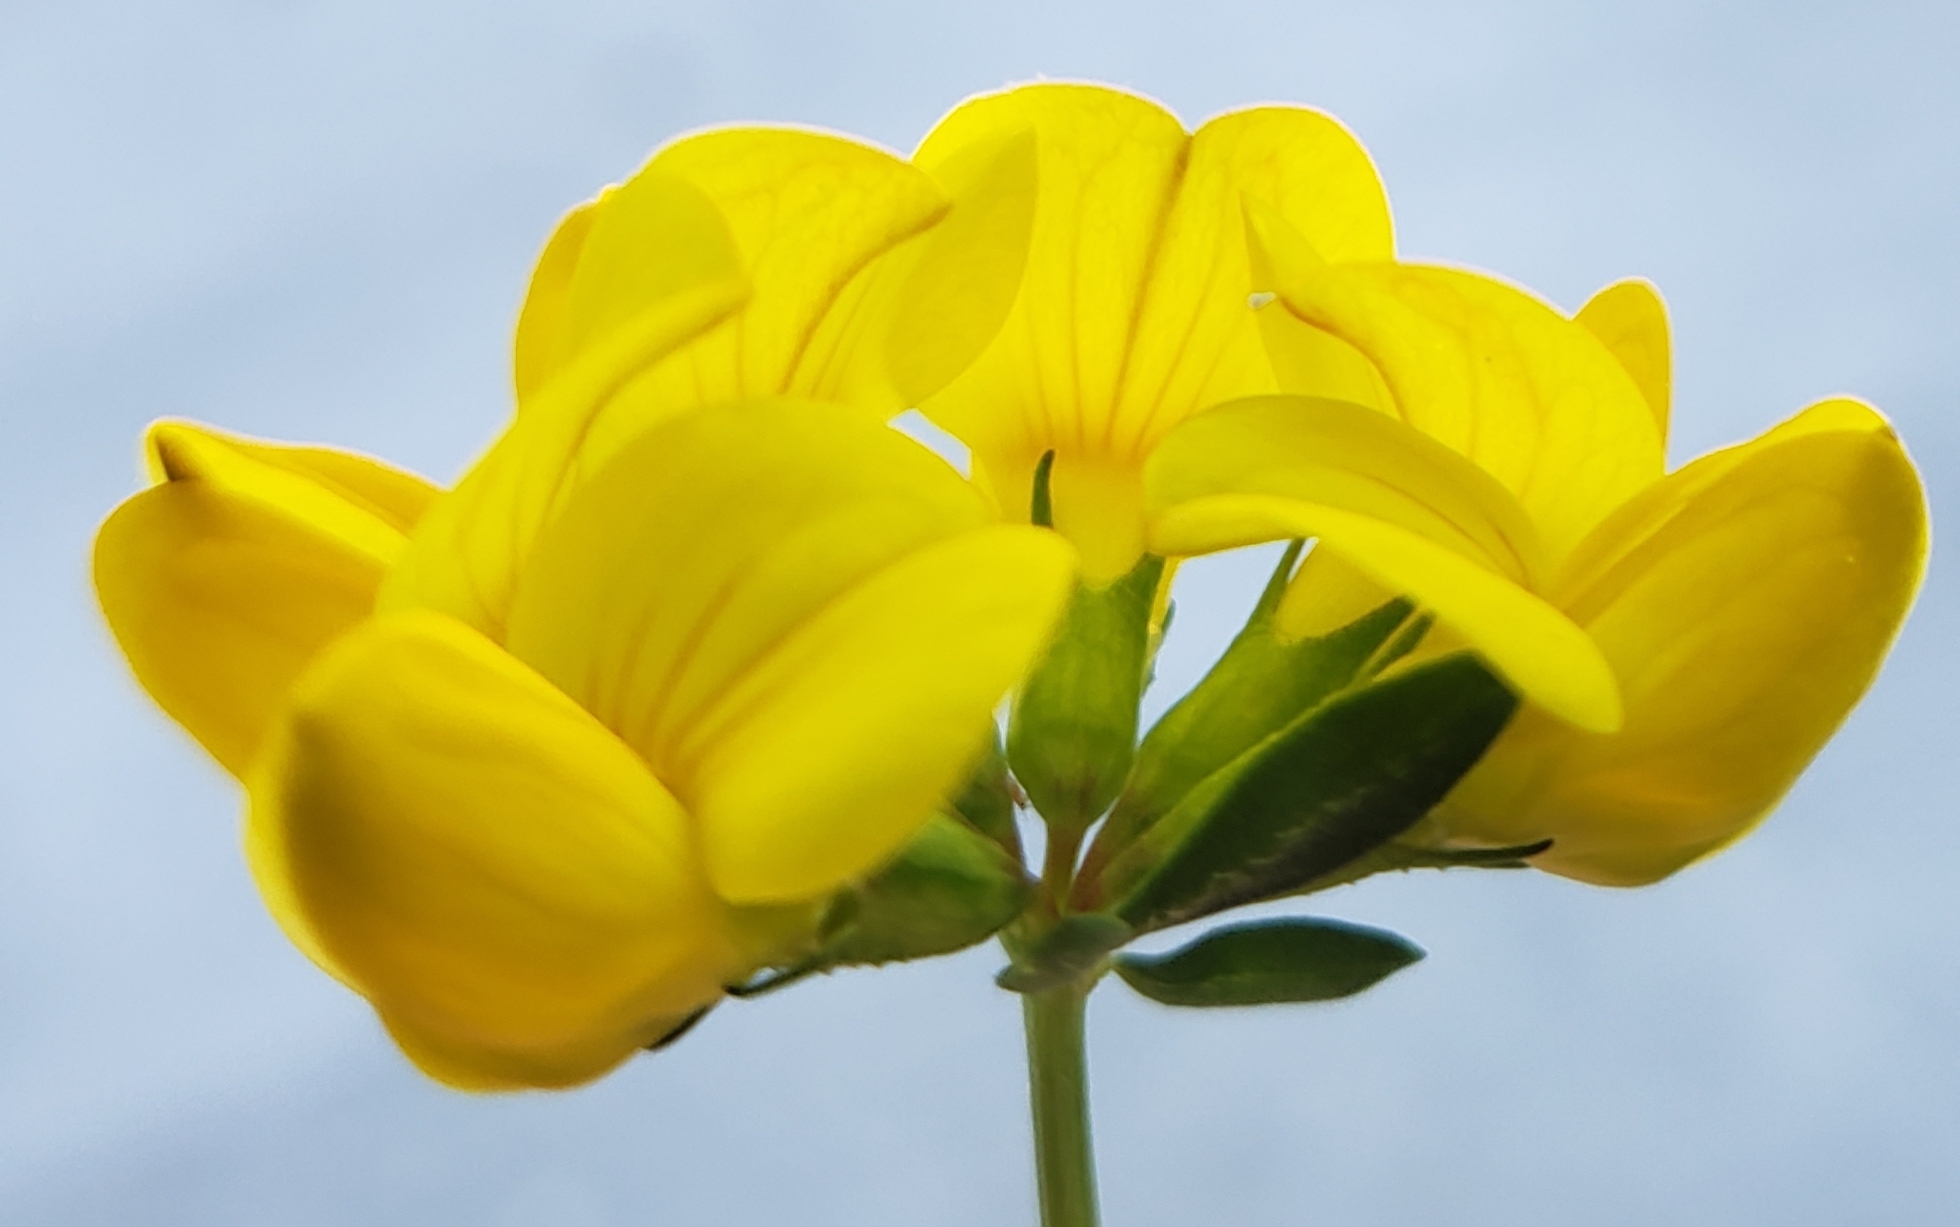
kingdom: Plantae
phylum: Tracheophyta
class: Magnoliopsida
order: Fabales
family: Fabaceae
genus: Lotus
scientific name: Lotus corniculatus
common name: Common bird's-foot-trefoil
